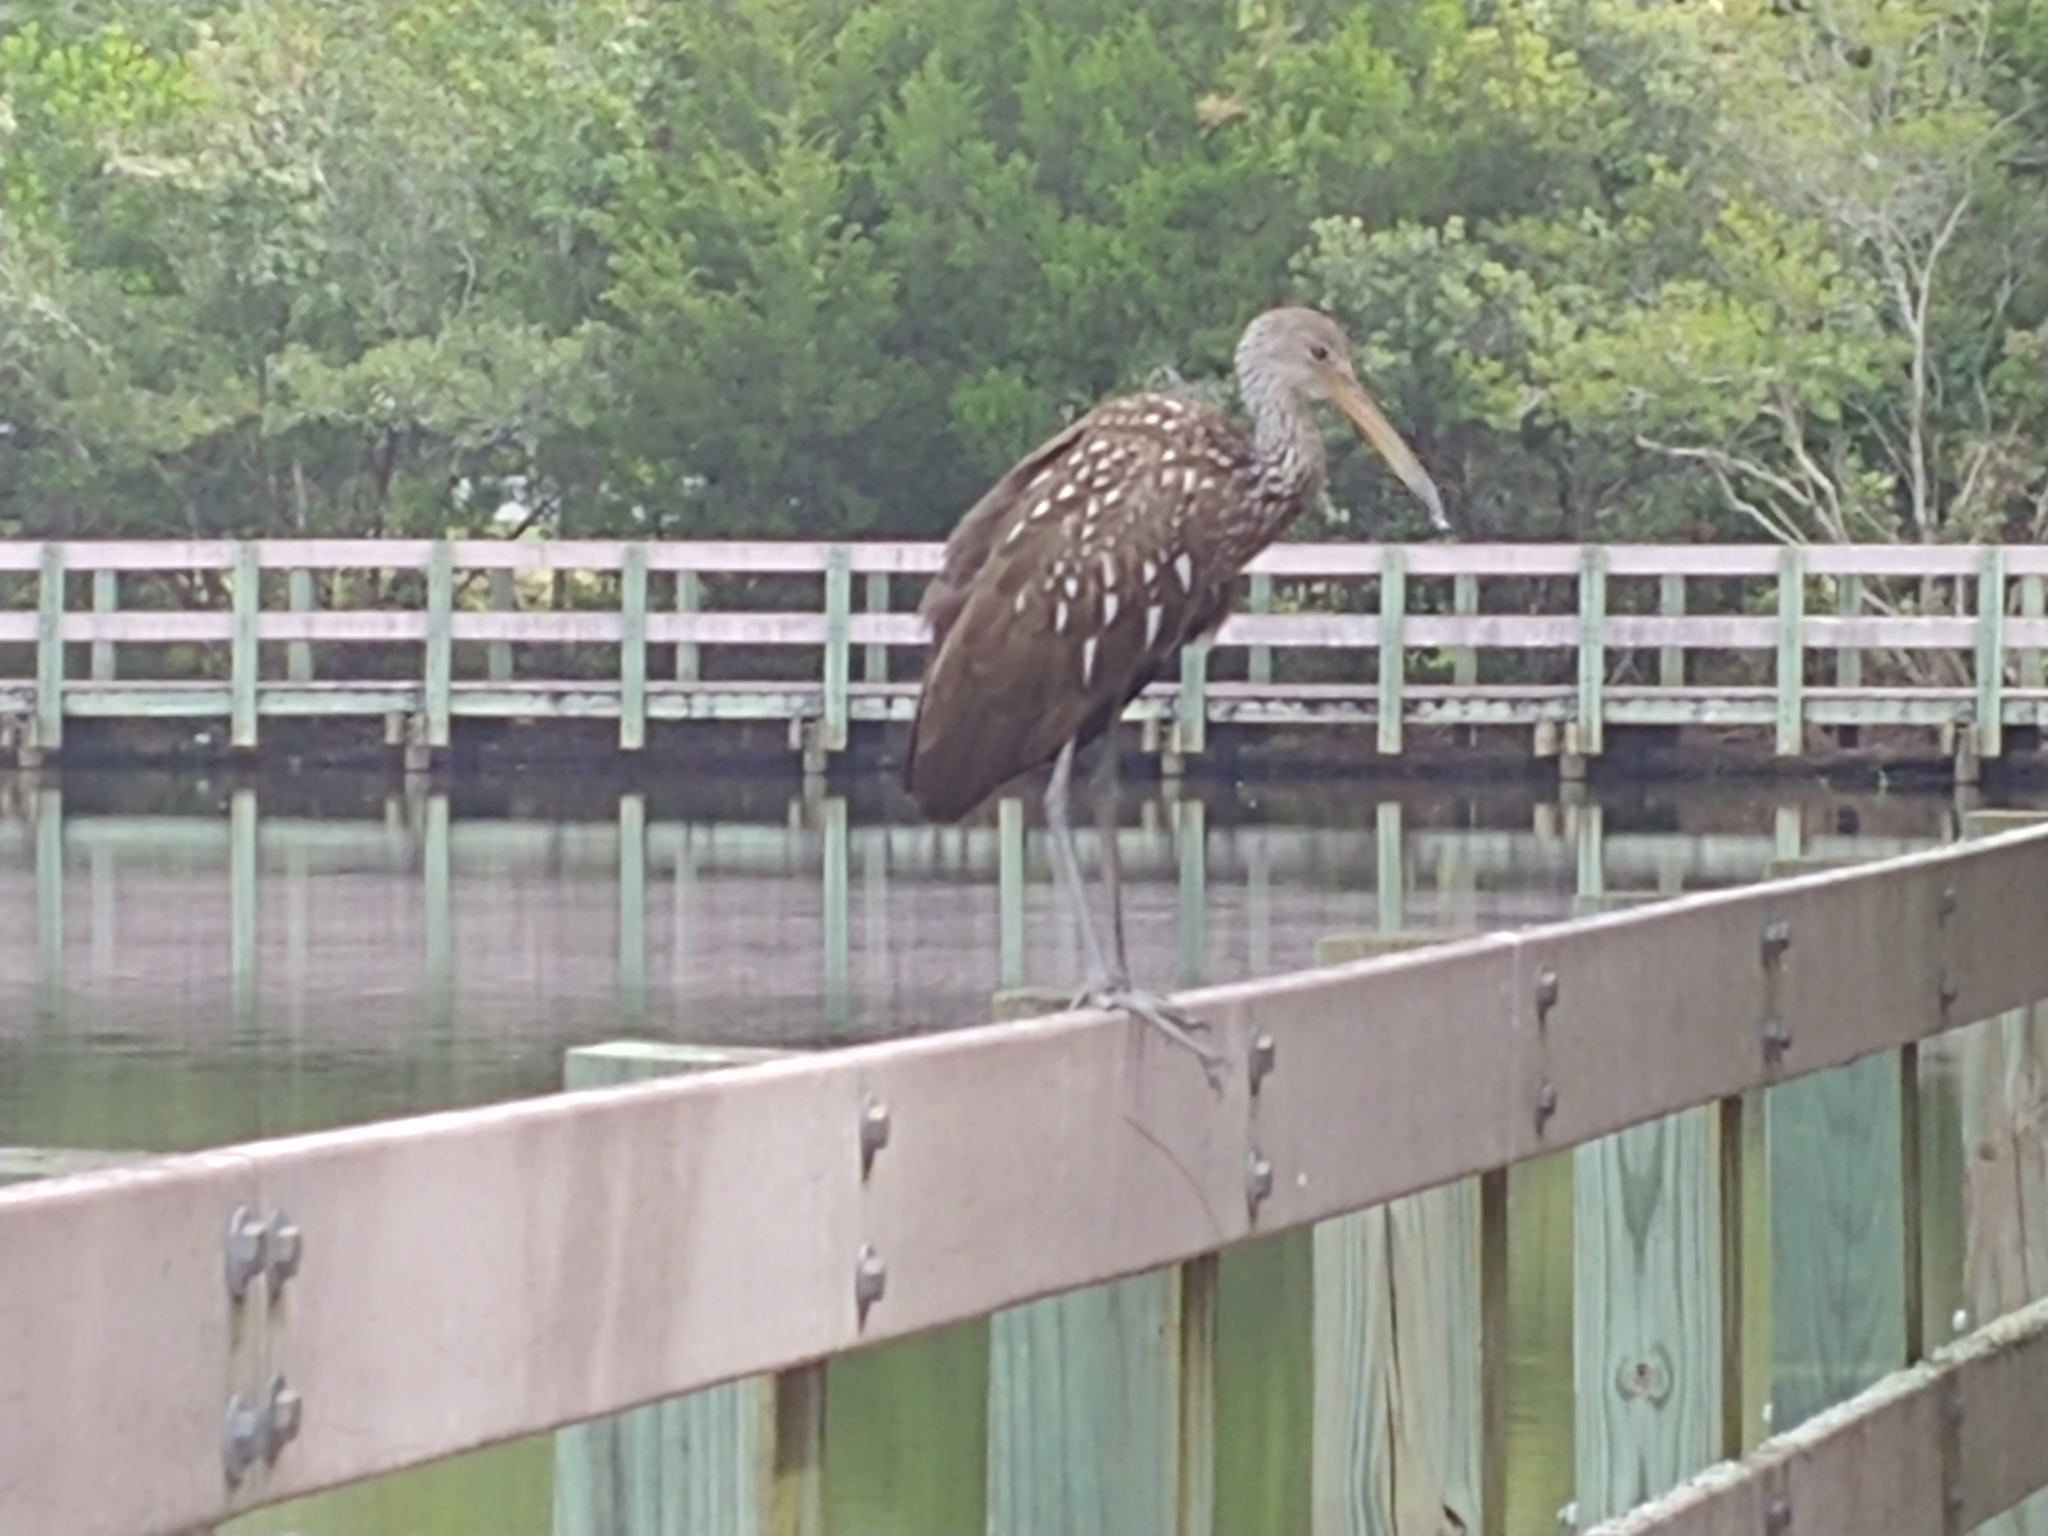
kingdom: Animalia
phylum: Chordata
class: Aves
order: Gruiformes
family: Aramidae
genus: Aramus
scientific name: Aramus guarauna
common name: Limpkin
